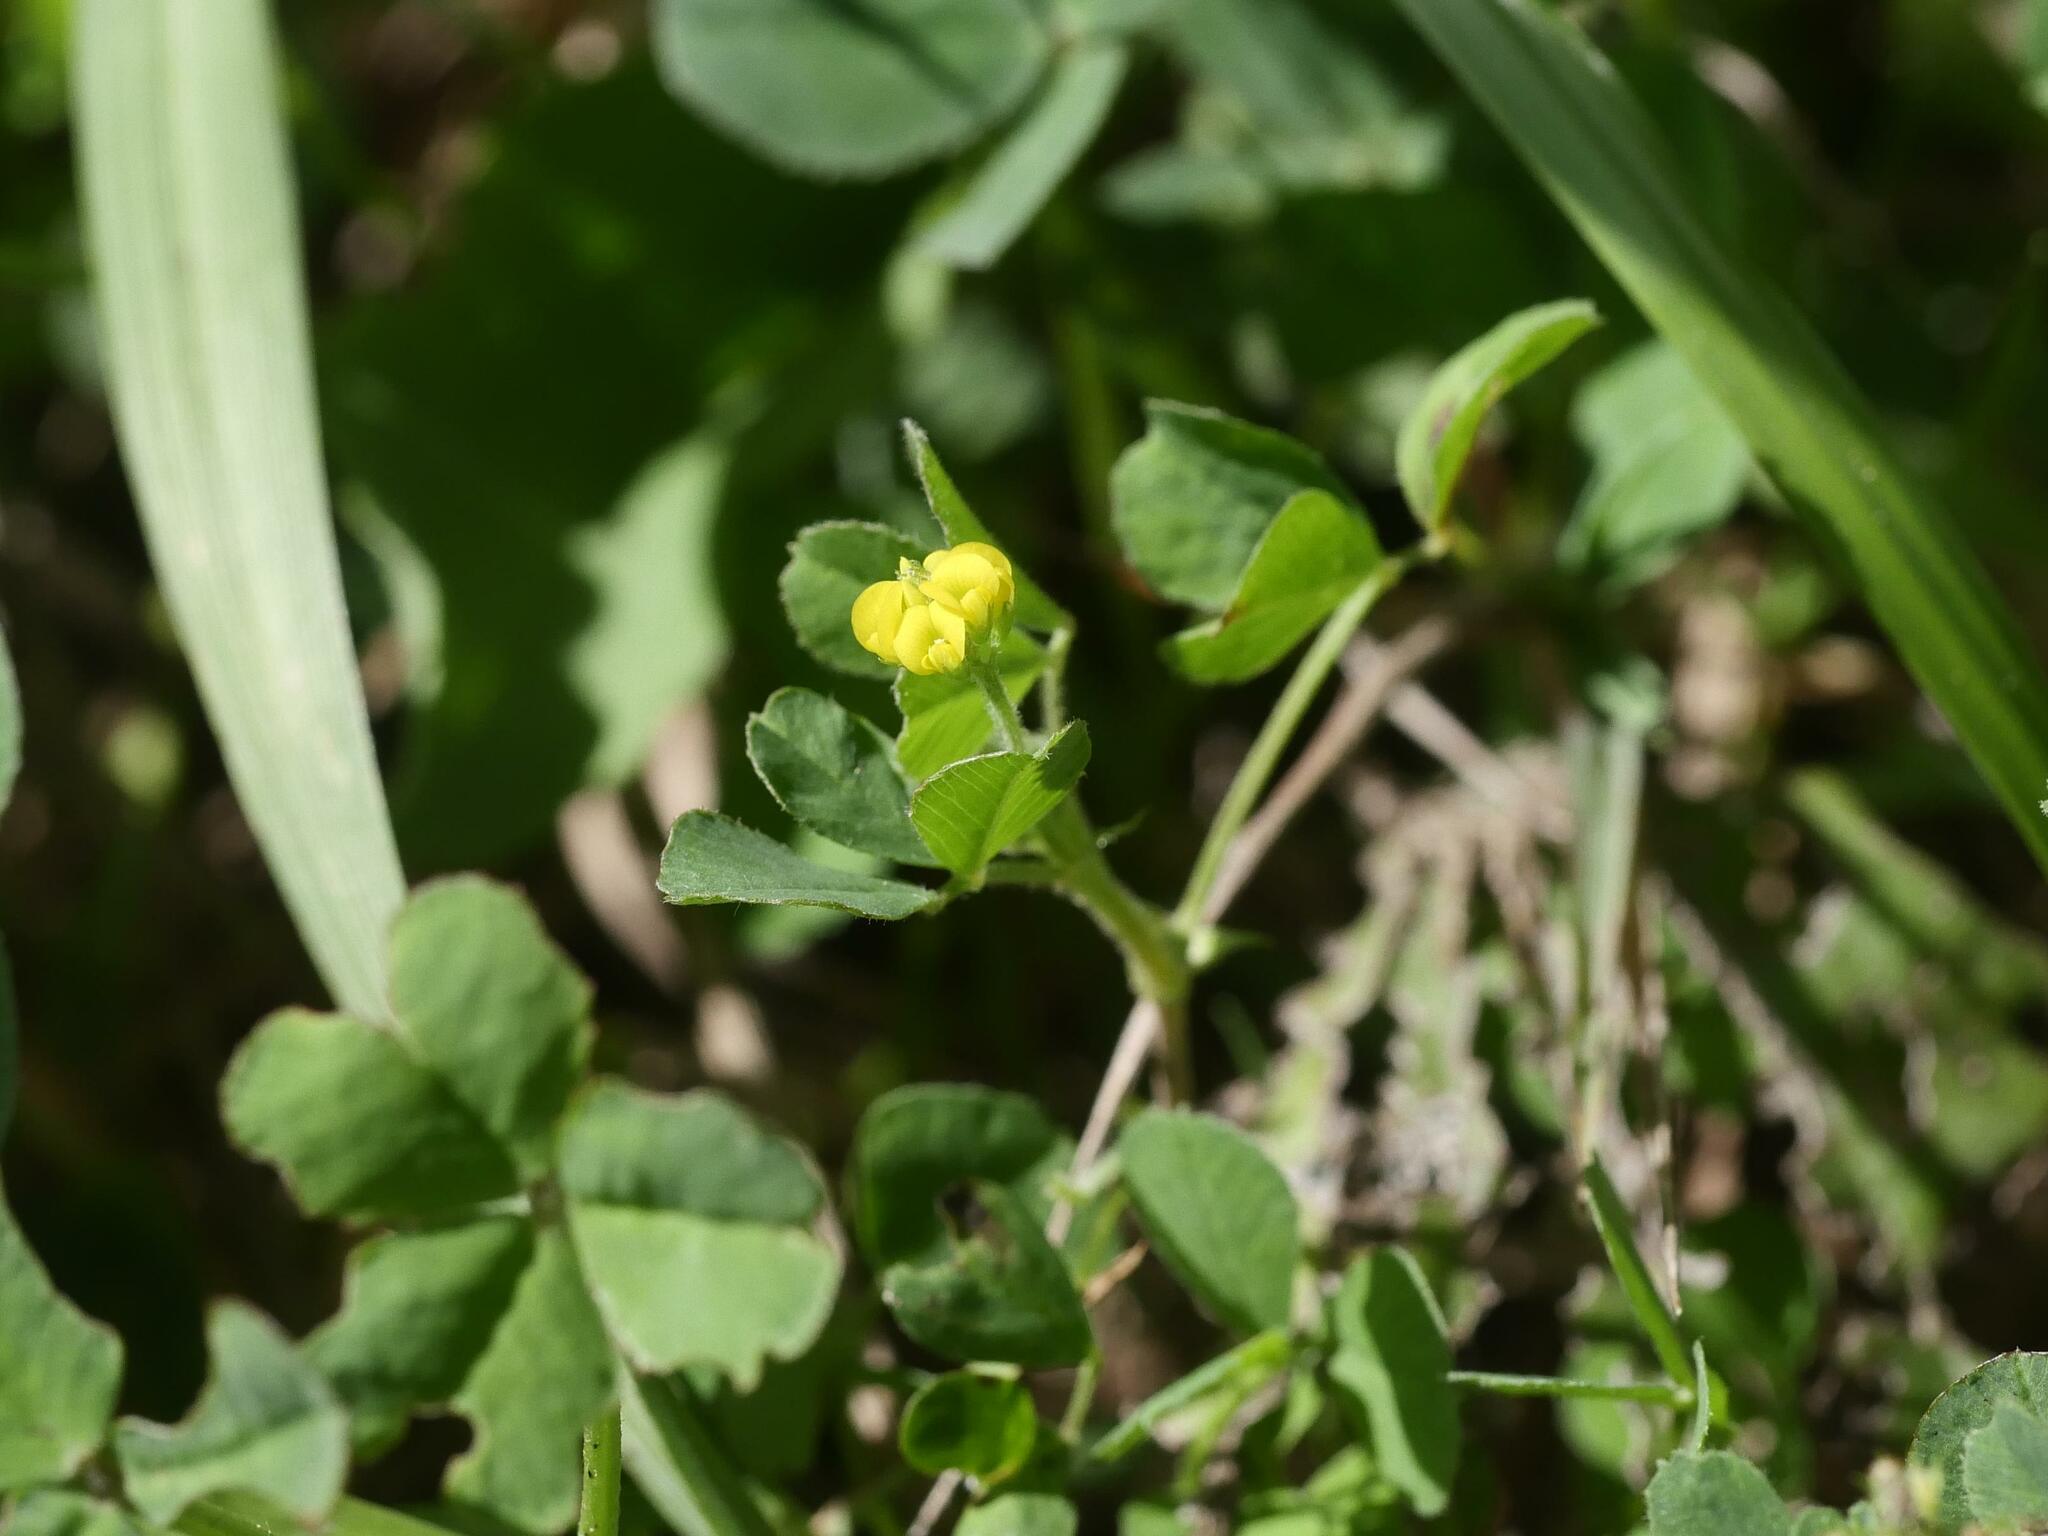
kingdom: Plantae
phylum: Tracheophyta
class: Magnoliopsida
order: Fabales
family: Fabaceae
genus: Medicago
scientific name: Medicago lupulina
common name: Black medick
